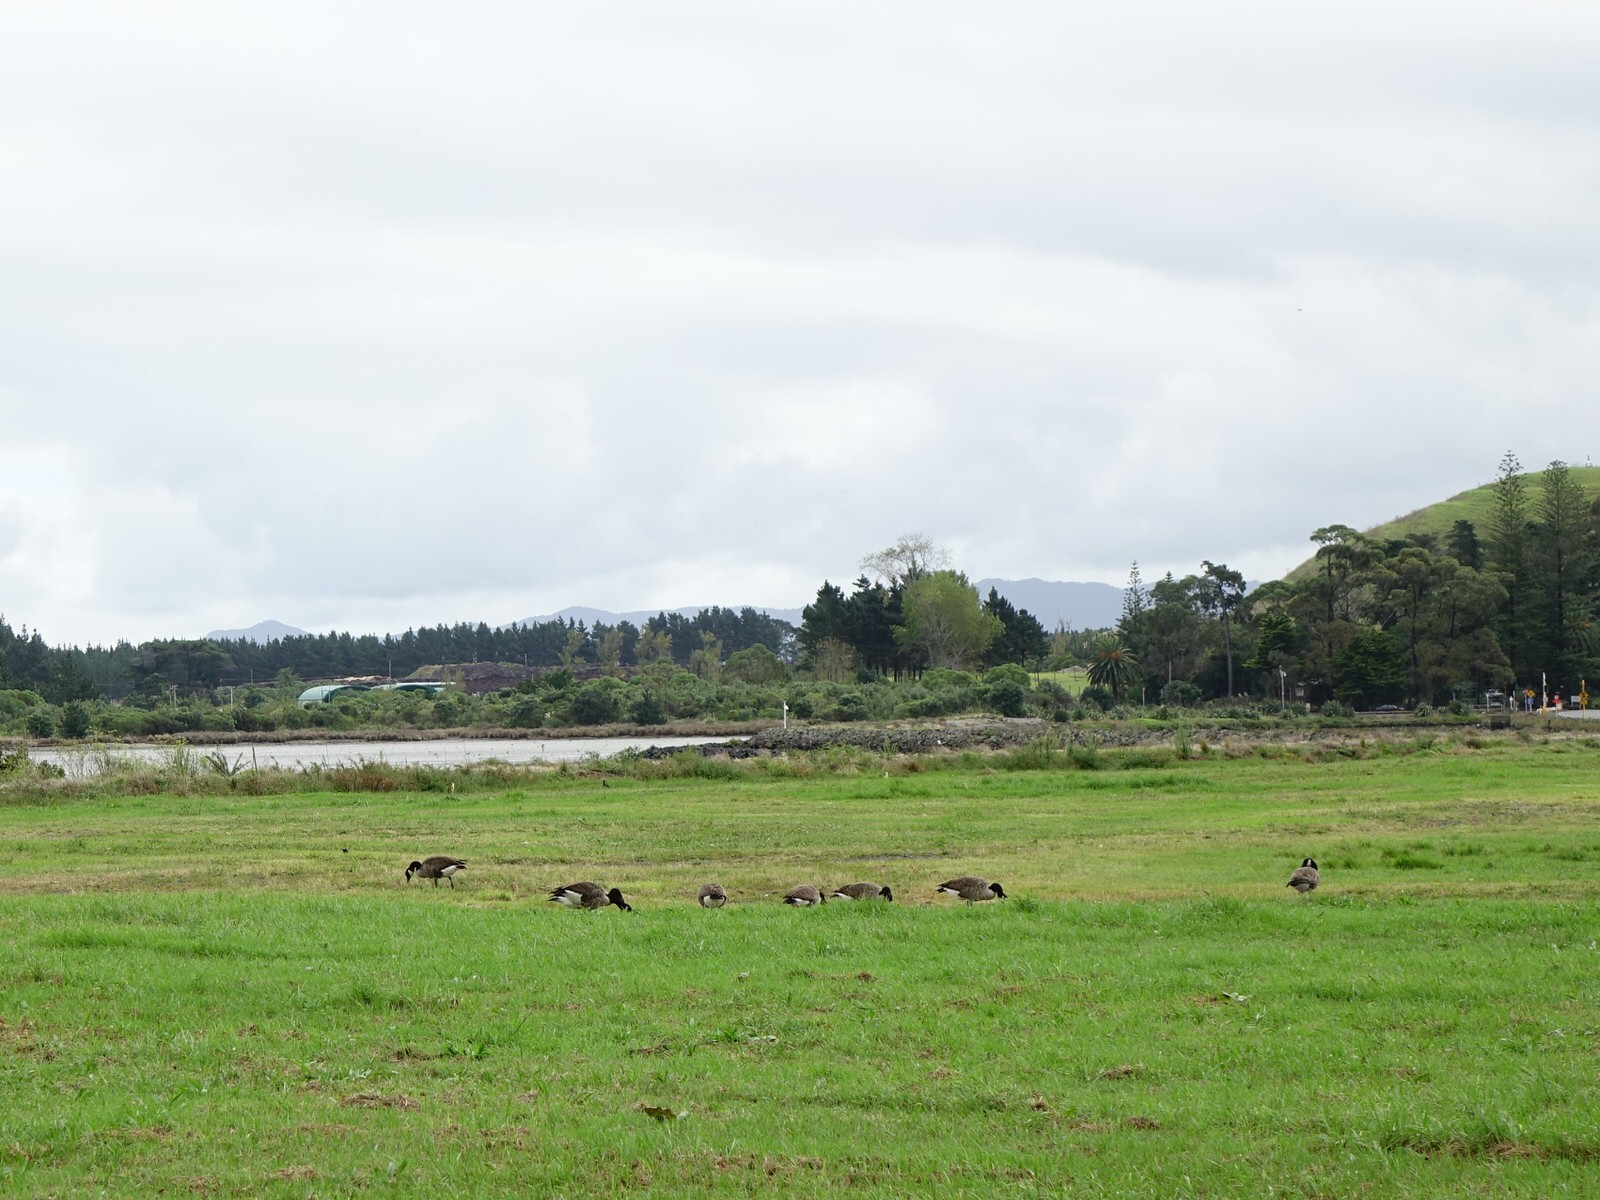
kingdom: Animalia
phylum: Chordata
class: Aves
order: Anseriformes
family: Anatidae
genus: Branta
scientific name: Branta canadensis
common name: Canada goose
